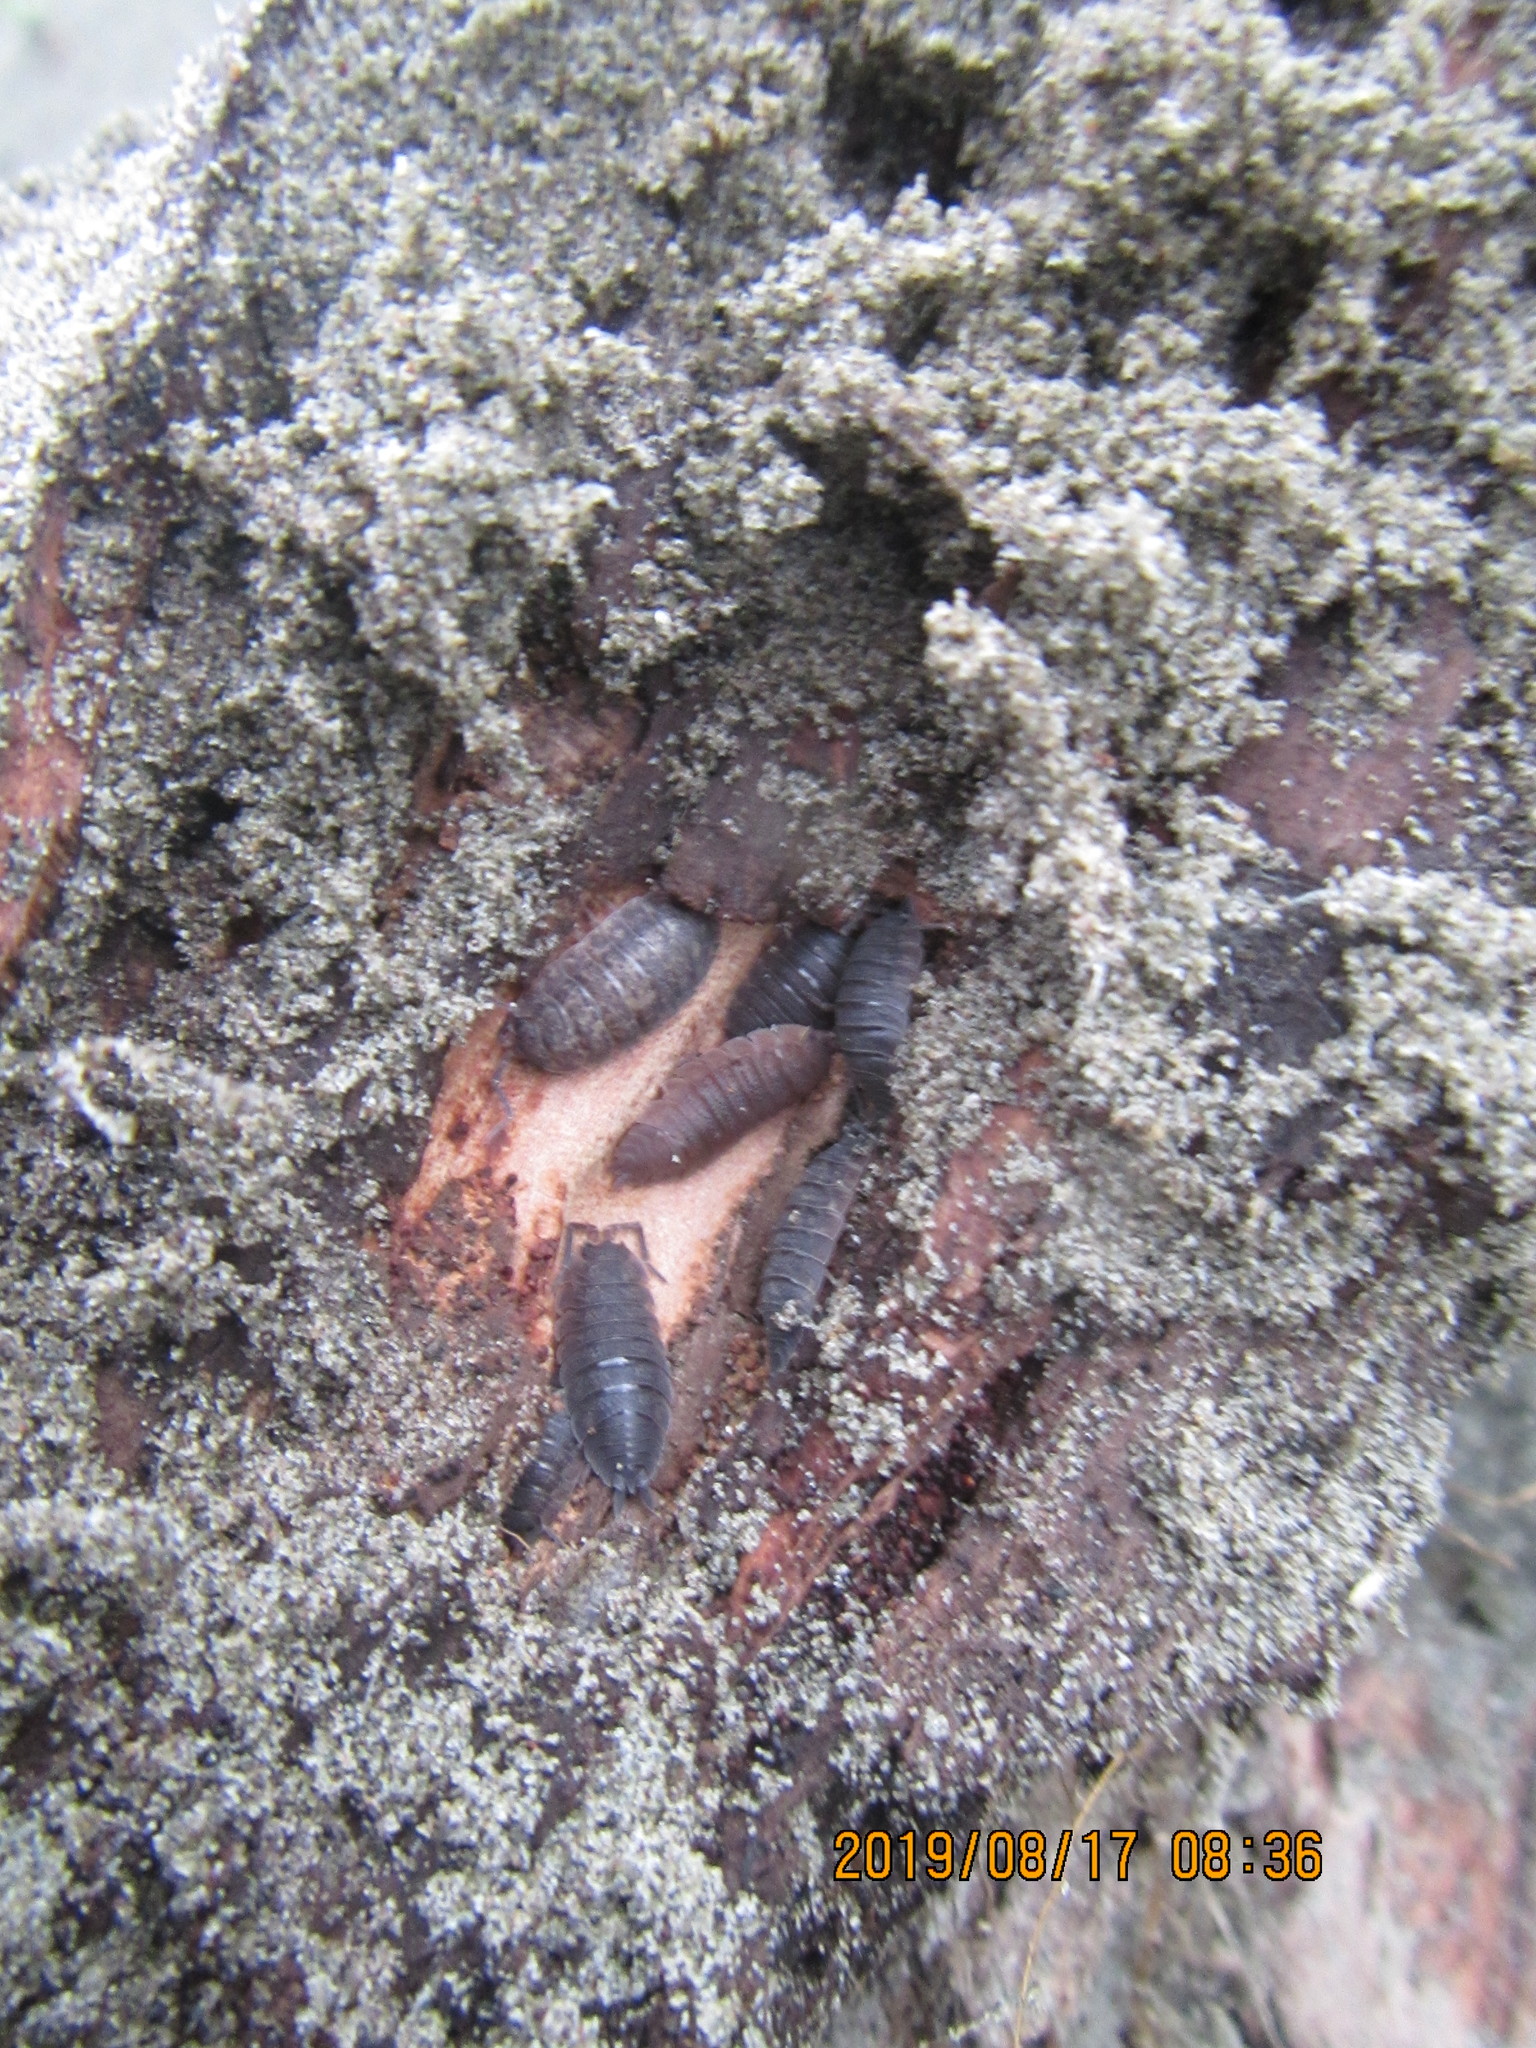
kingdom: Animalia
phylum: Arthropoda
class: Arachnida
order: Araneae
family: Theridiidae
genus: Latrodectus
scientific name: Latrodectus katipo
